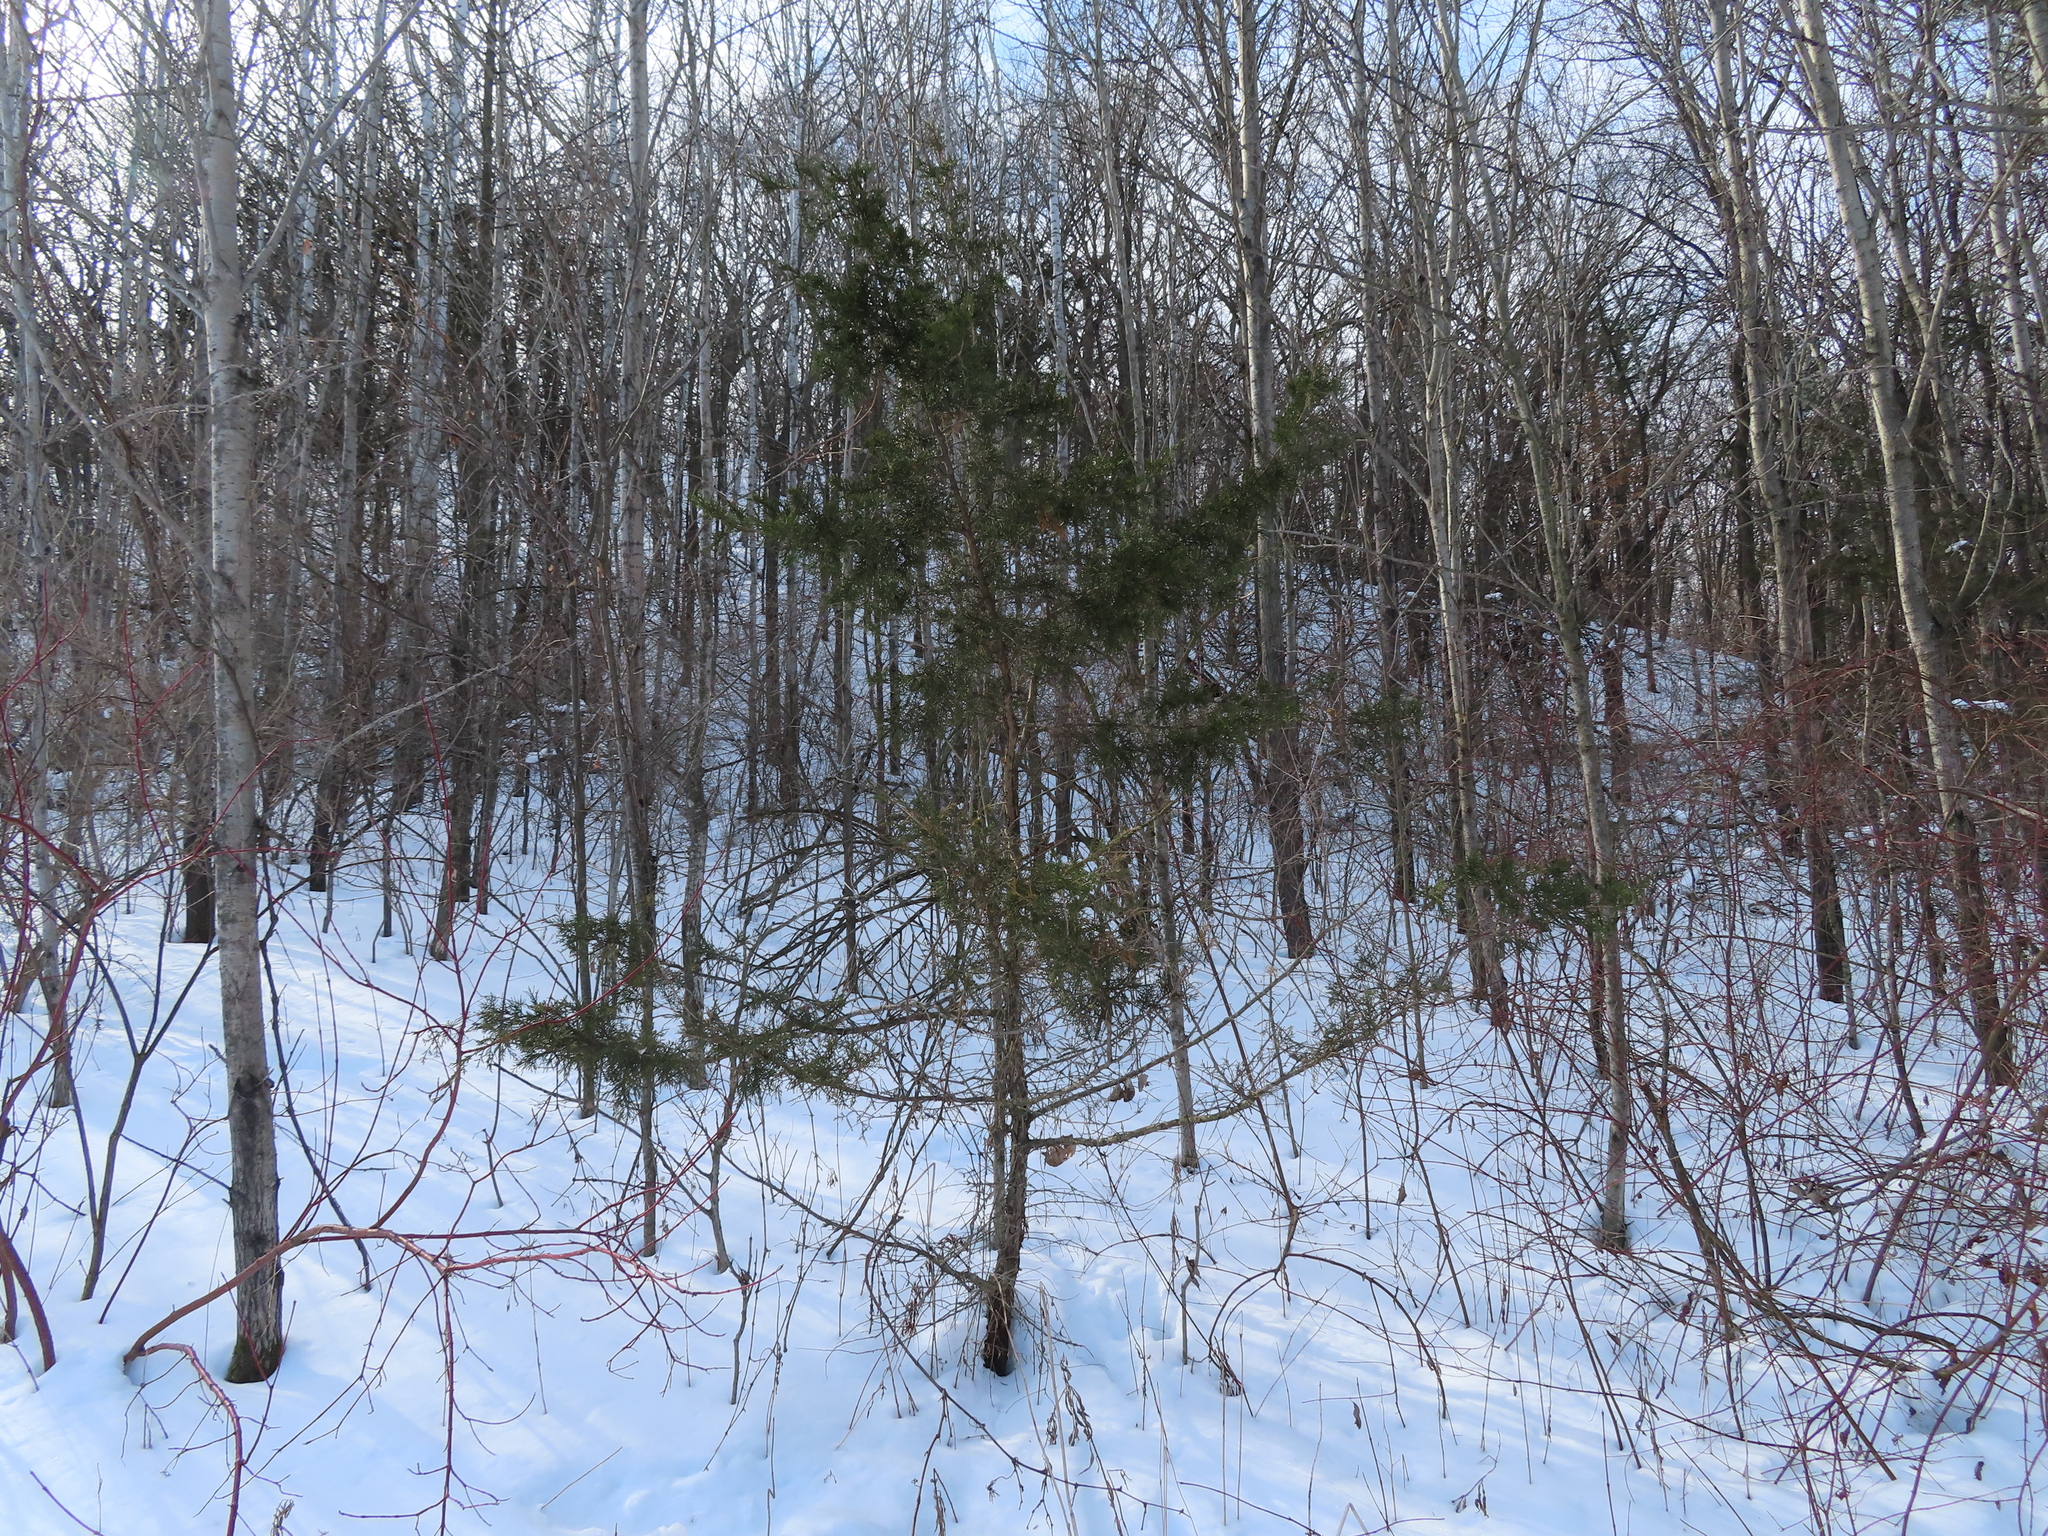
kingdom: Plantae
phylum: Tracheophyta
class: Pinopsida
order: Pinales
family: Cupressaceae
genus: Juniperus
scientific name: Juniperus virginiana
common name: Red juniper
